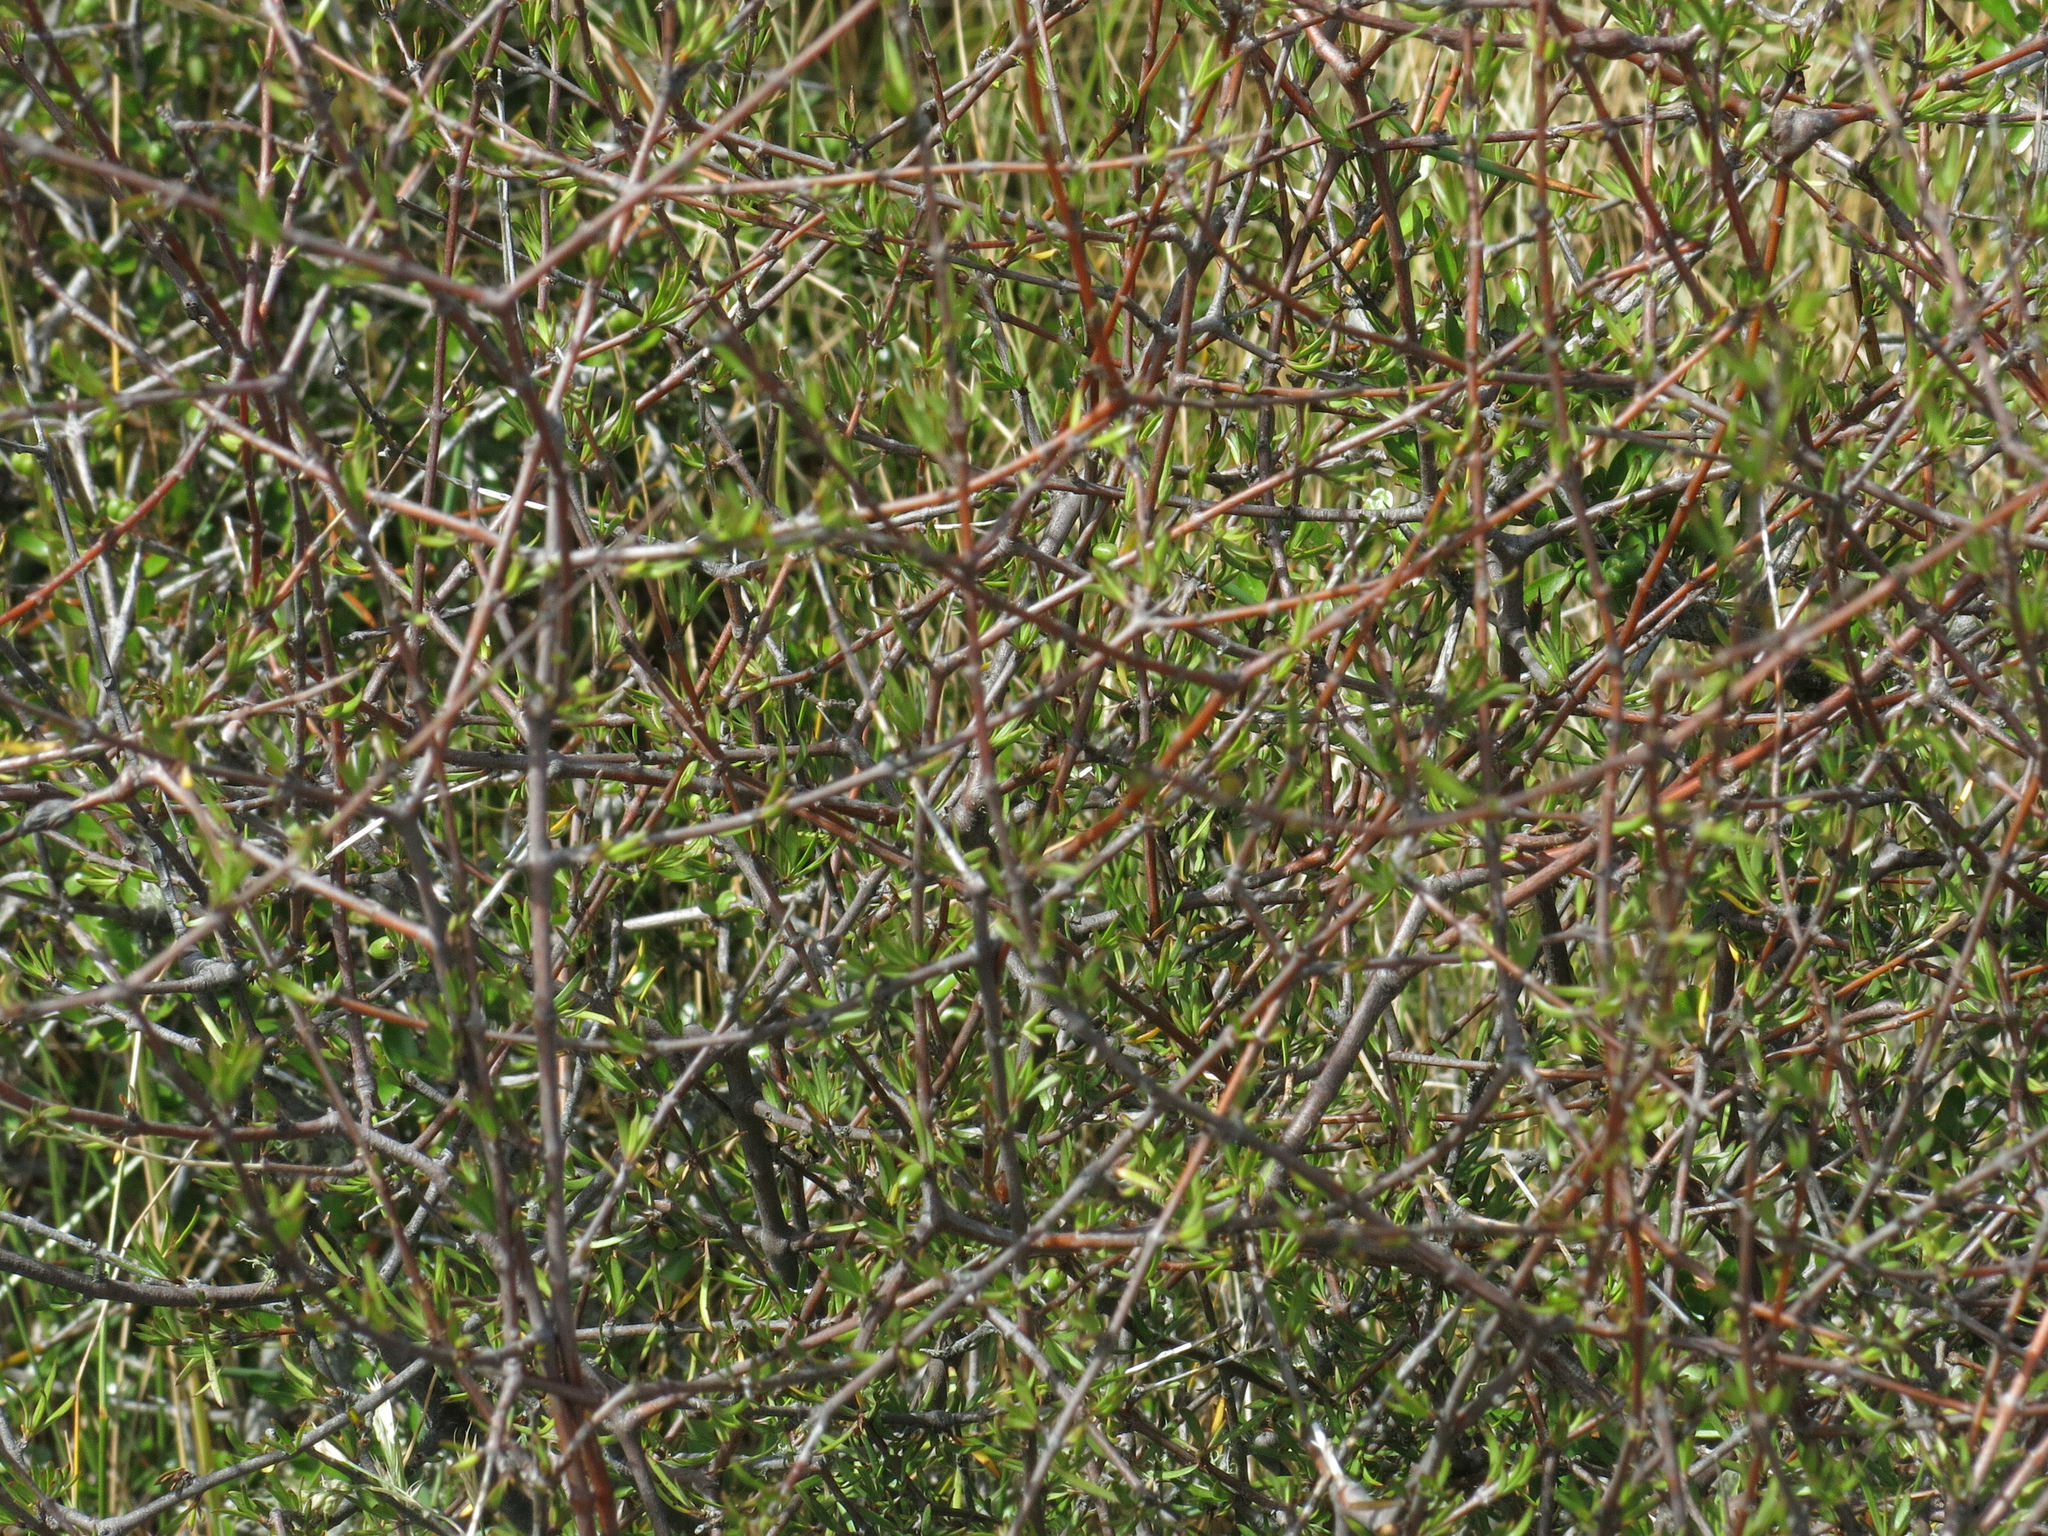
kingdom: Plantae
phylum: Tracheophyta
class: Magnoliopsida
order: Gentianales
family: Rubiaceae
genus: Coprosma
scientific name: Coprosma intertexta
